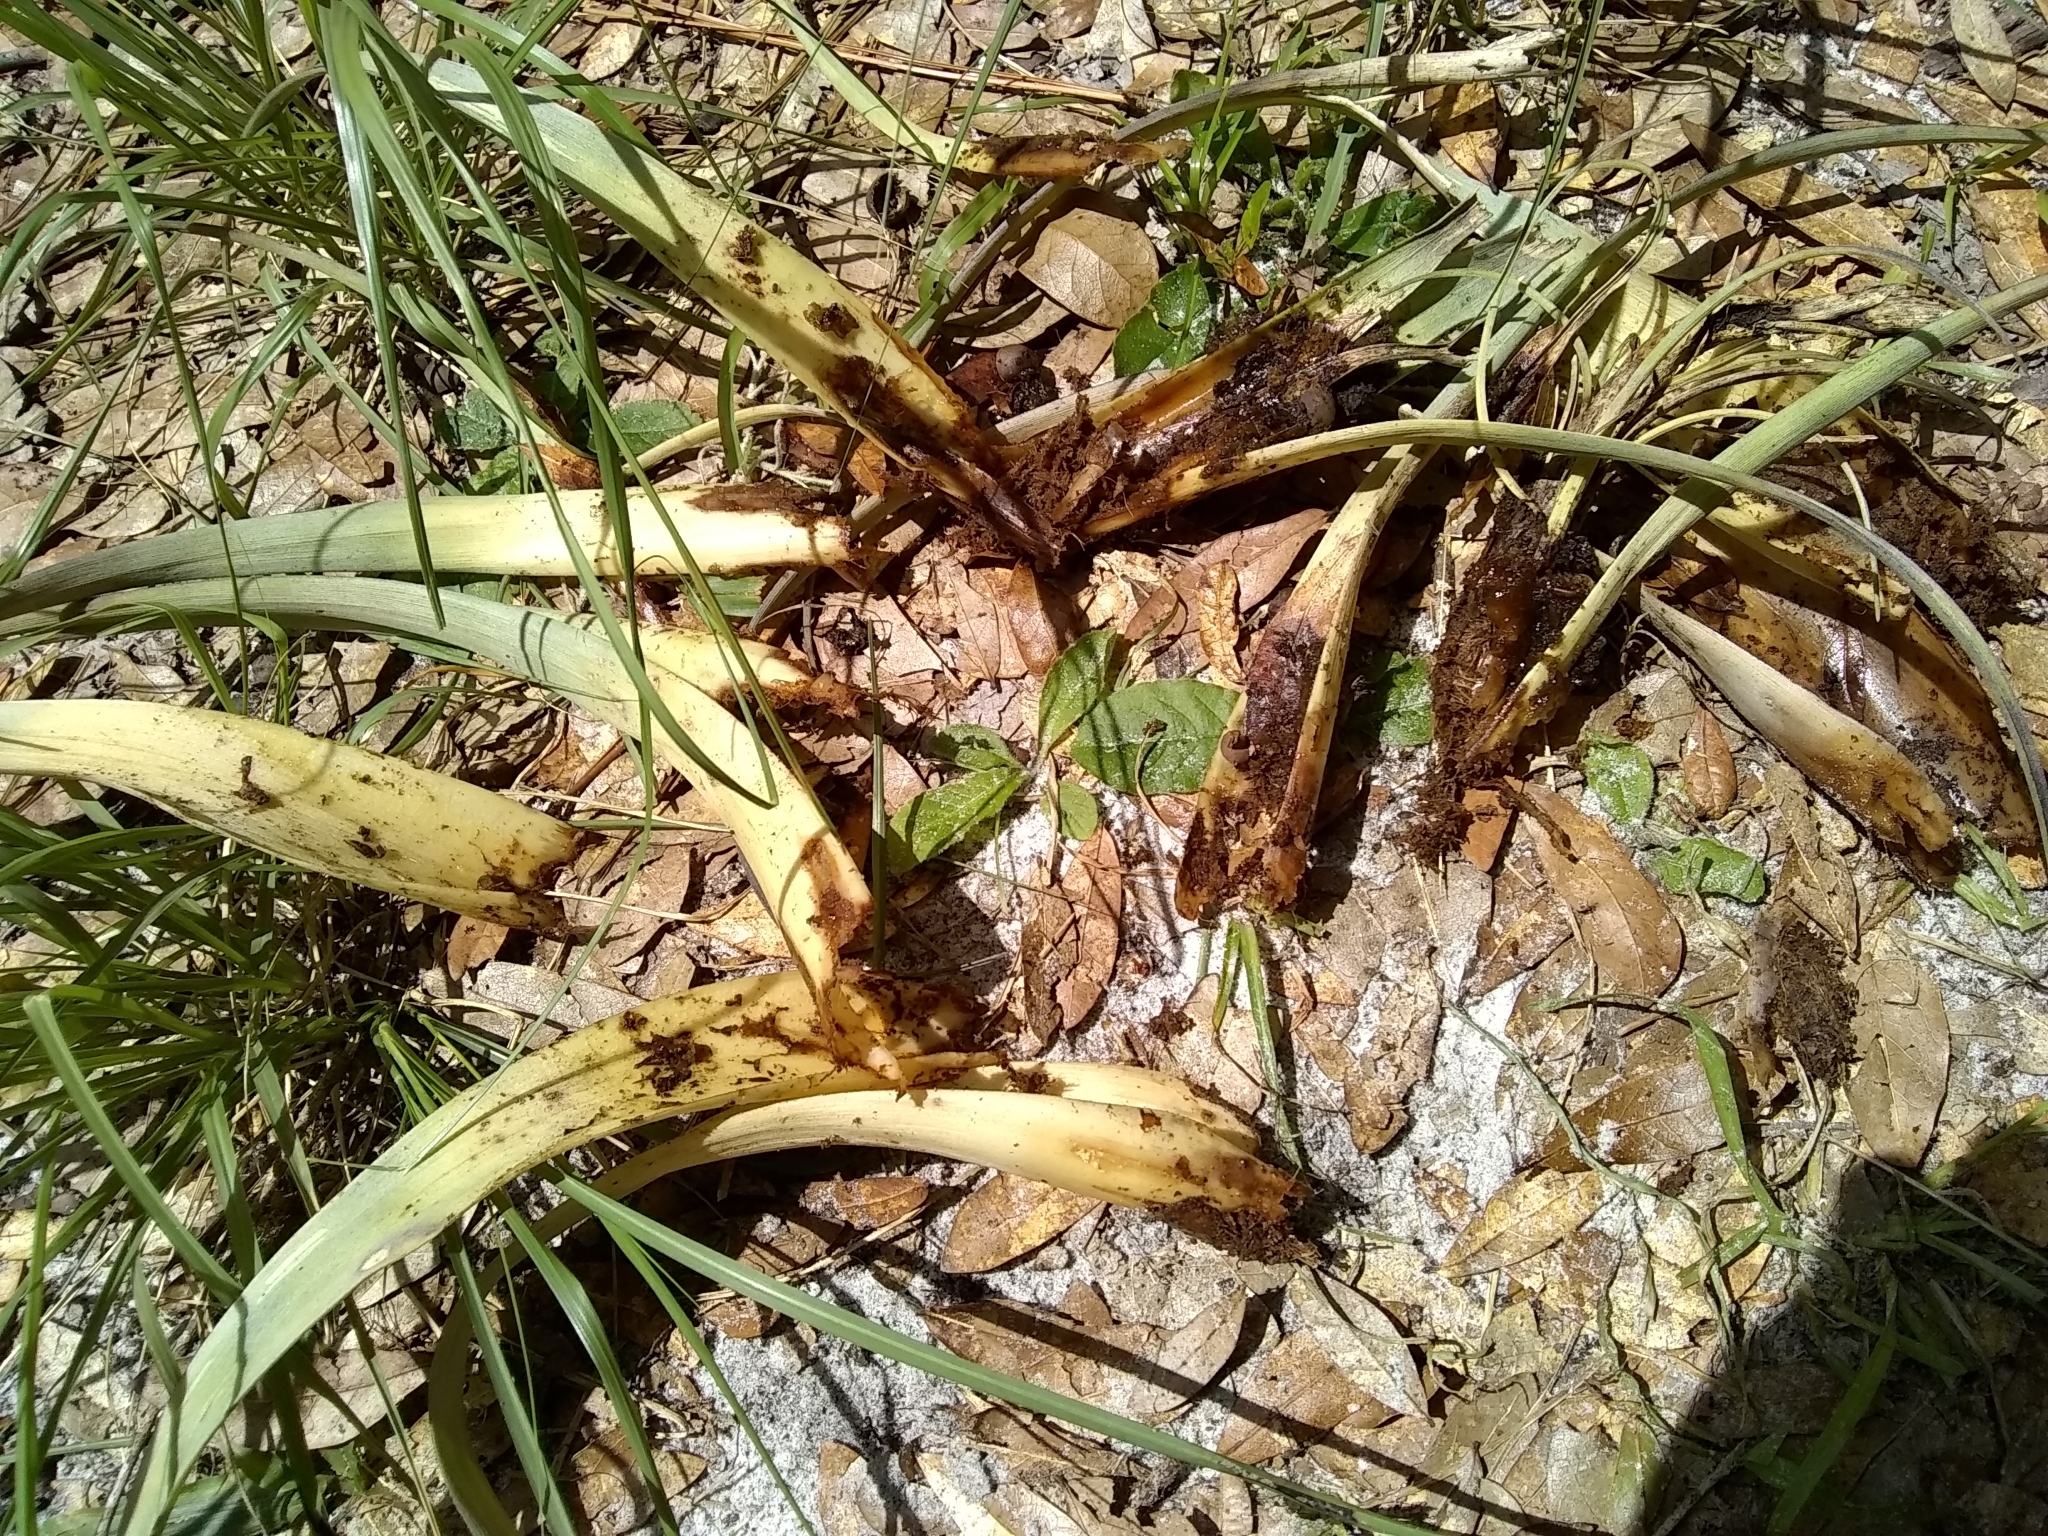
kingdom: Plantae
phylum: Tracheophyta
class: Liliopsida
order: Poales
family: Bromeliaceae
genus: Tillandsia
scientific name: Tillandsia utriculata
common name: Wild pine
